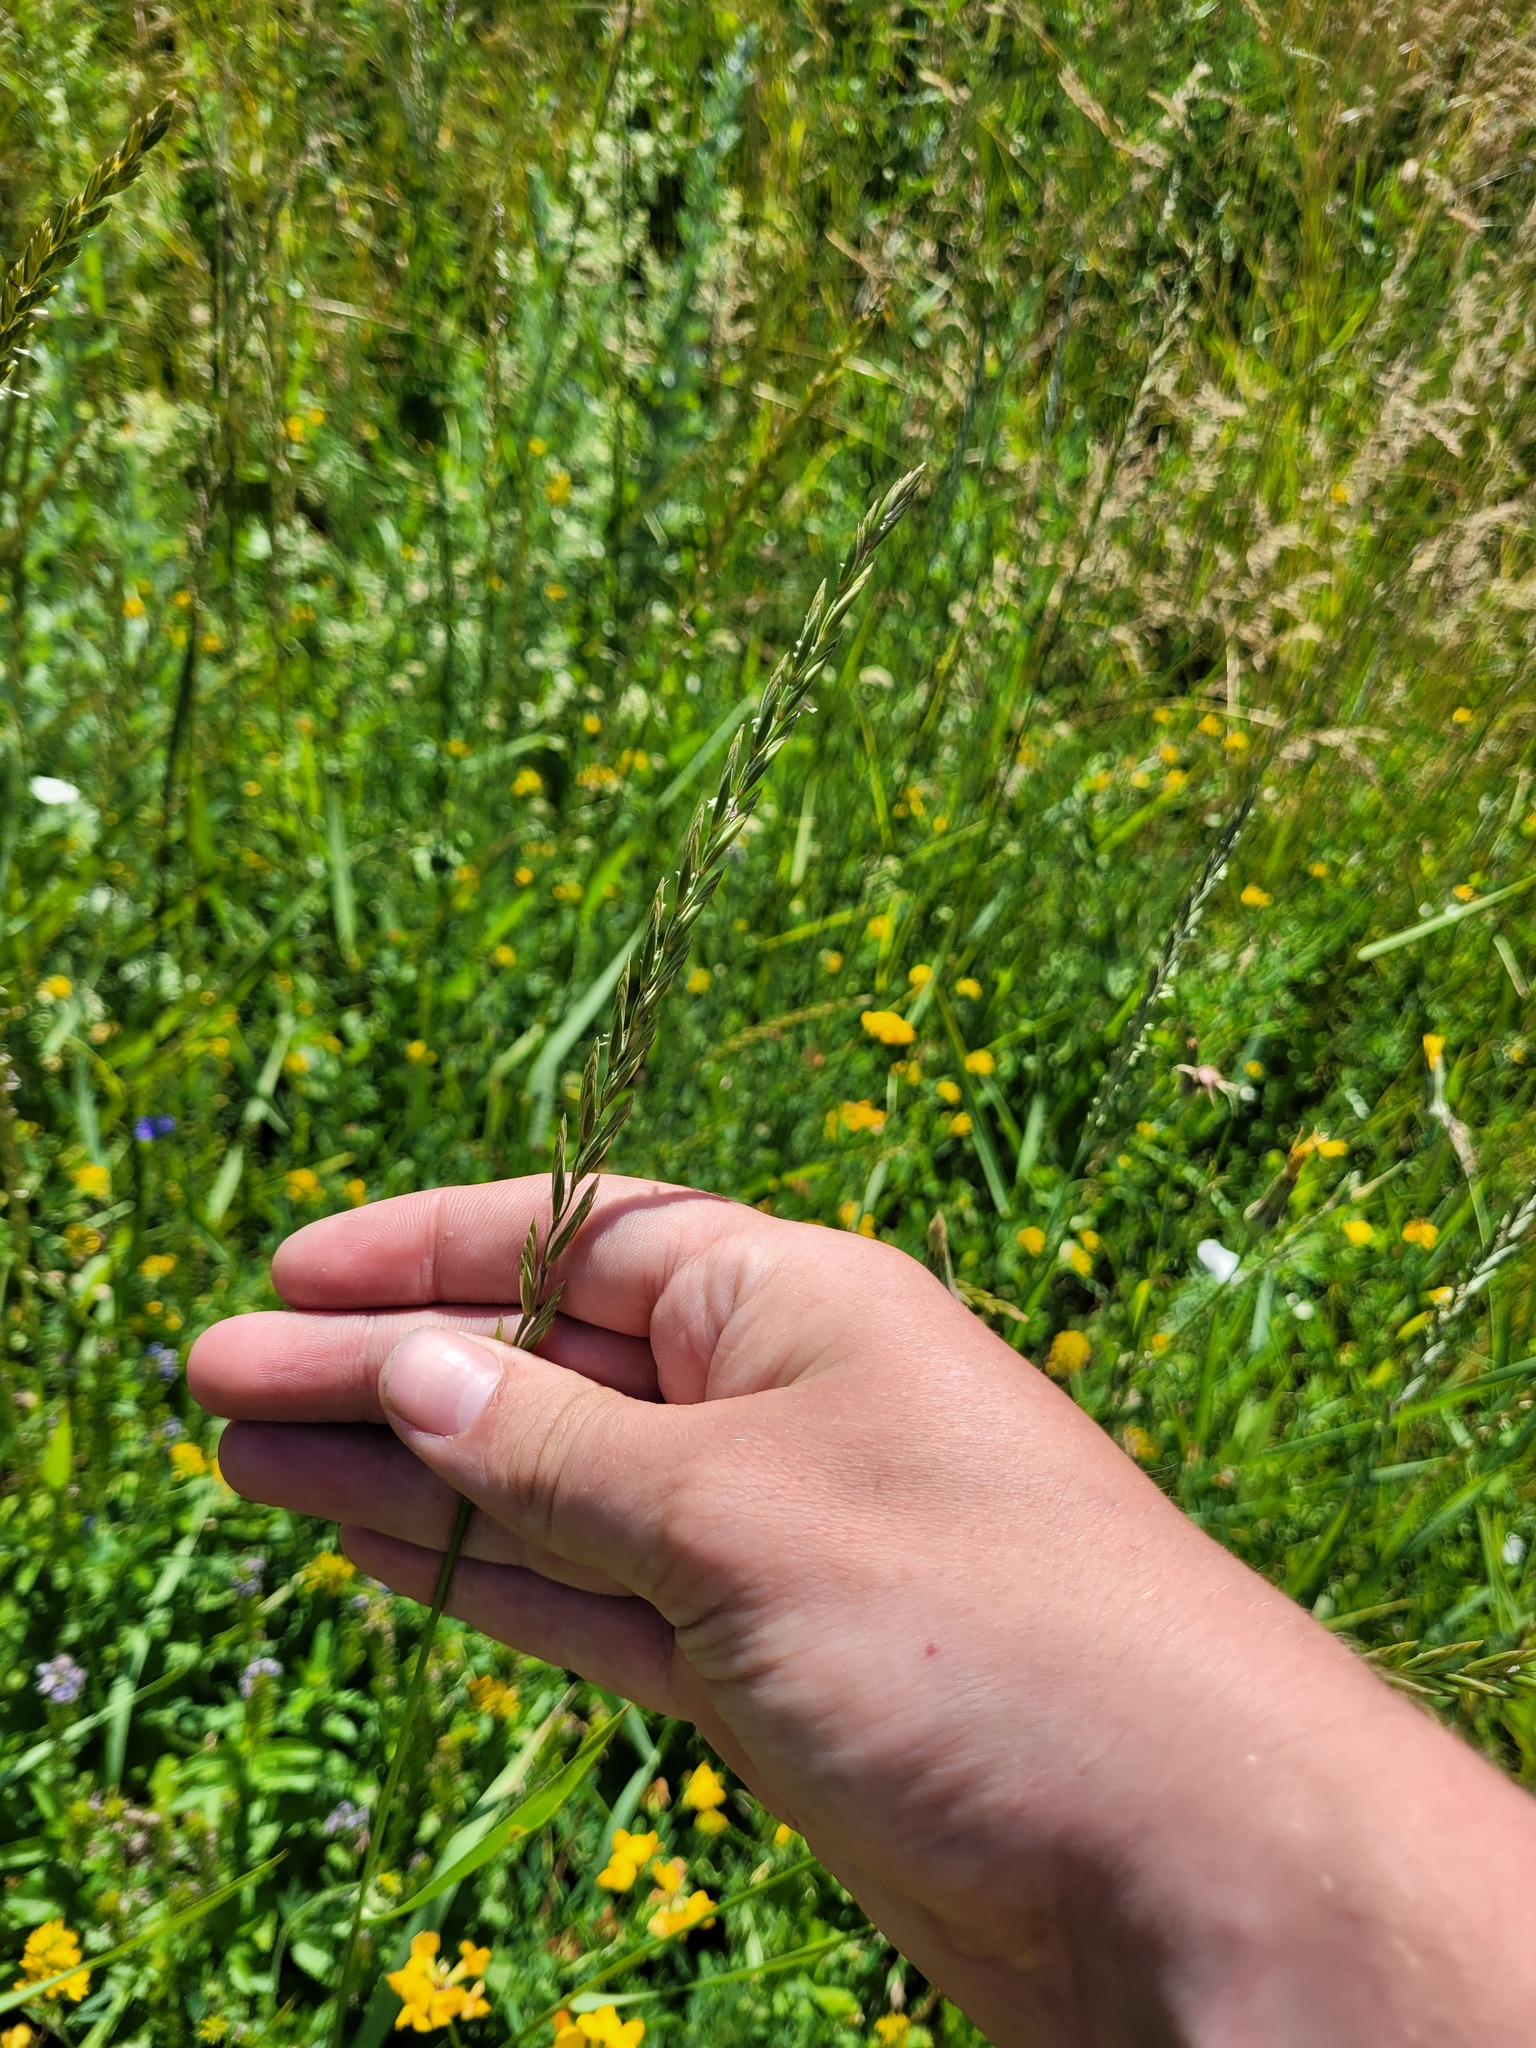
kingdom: Plantae
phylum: Tracheophyta
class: Liliopsida
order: Poales
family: Poaceae
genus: Elymus
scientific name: Elymus repens
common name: Quackgrass
